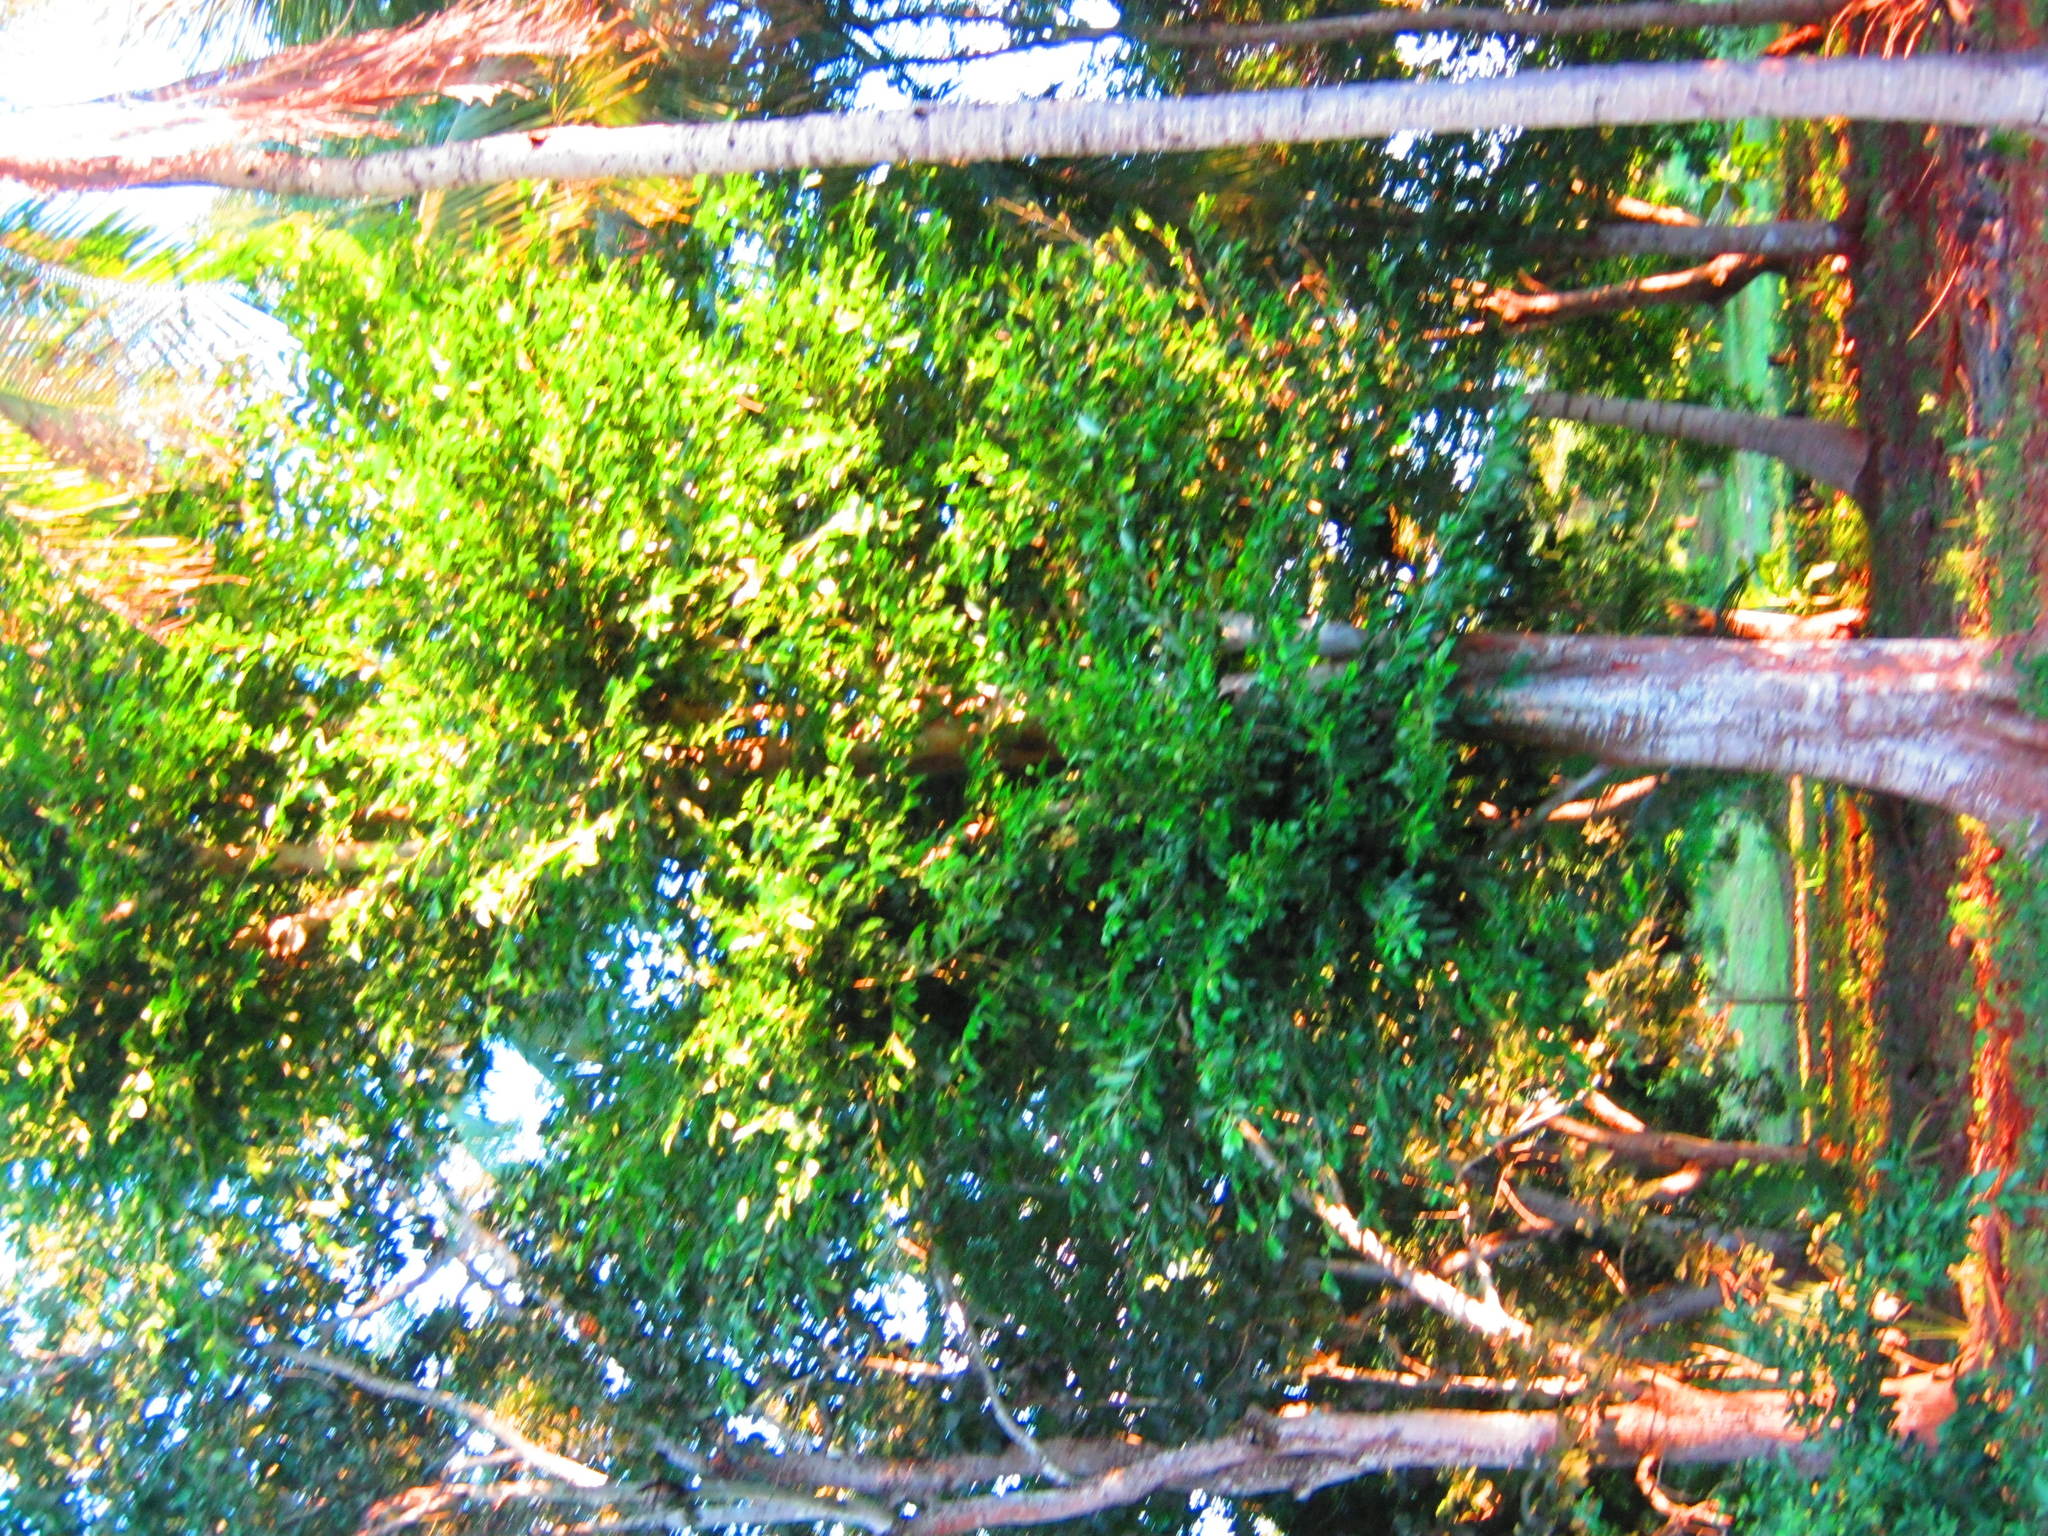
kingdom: Plantae
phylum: Tracheophyta
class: Magnoliopsida
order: Rosales
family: Moraceae
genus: Brosimum
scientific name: Brosimum alicastrum
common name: Breadnut
